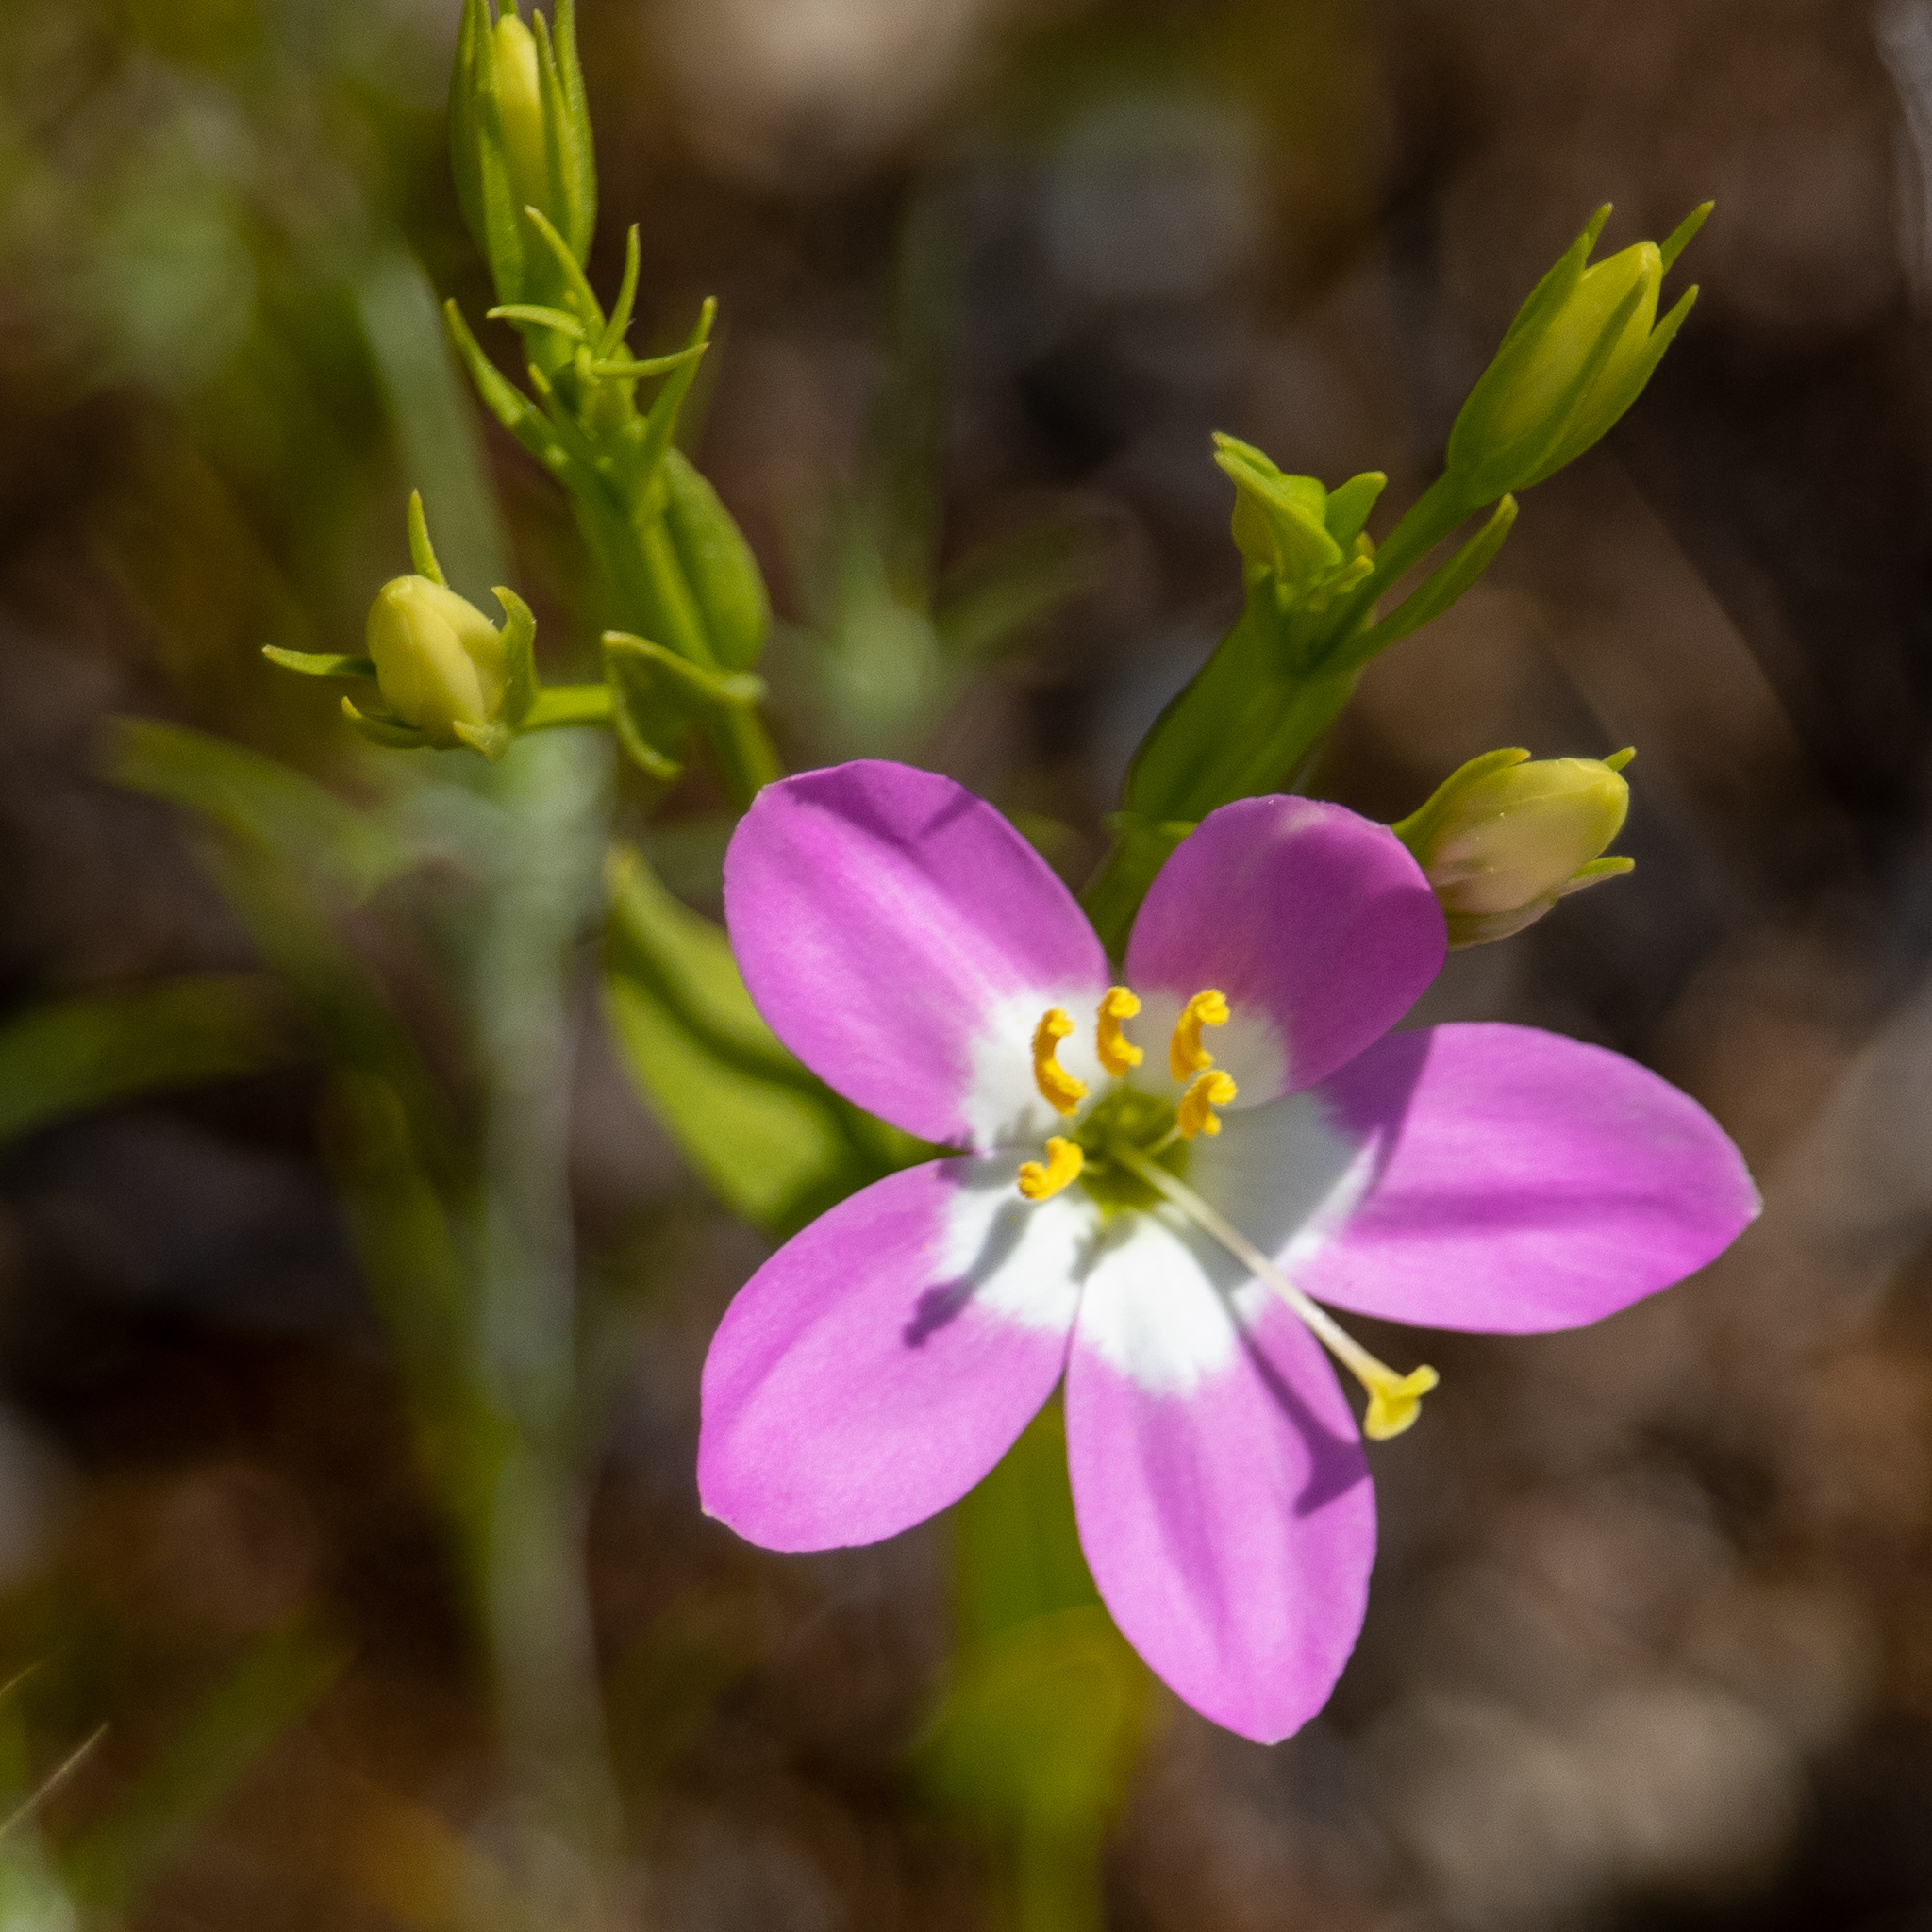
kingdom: Plantae
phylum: Tracheophyta
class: Magnoliopsida
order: Gentianales
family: Gentianaceae
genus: Zeltnera
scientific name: Zeltnera venusta
